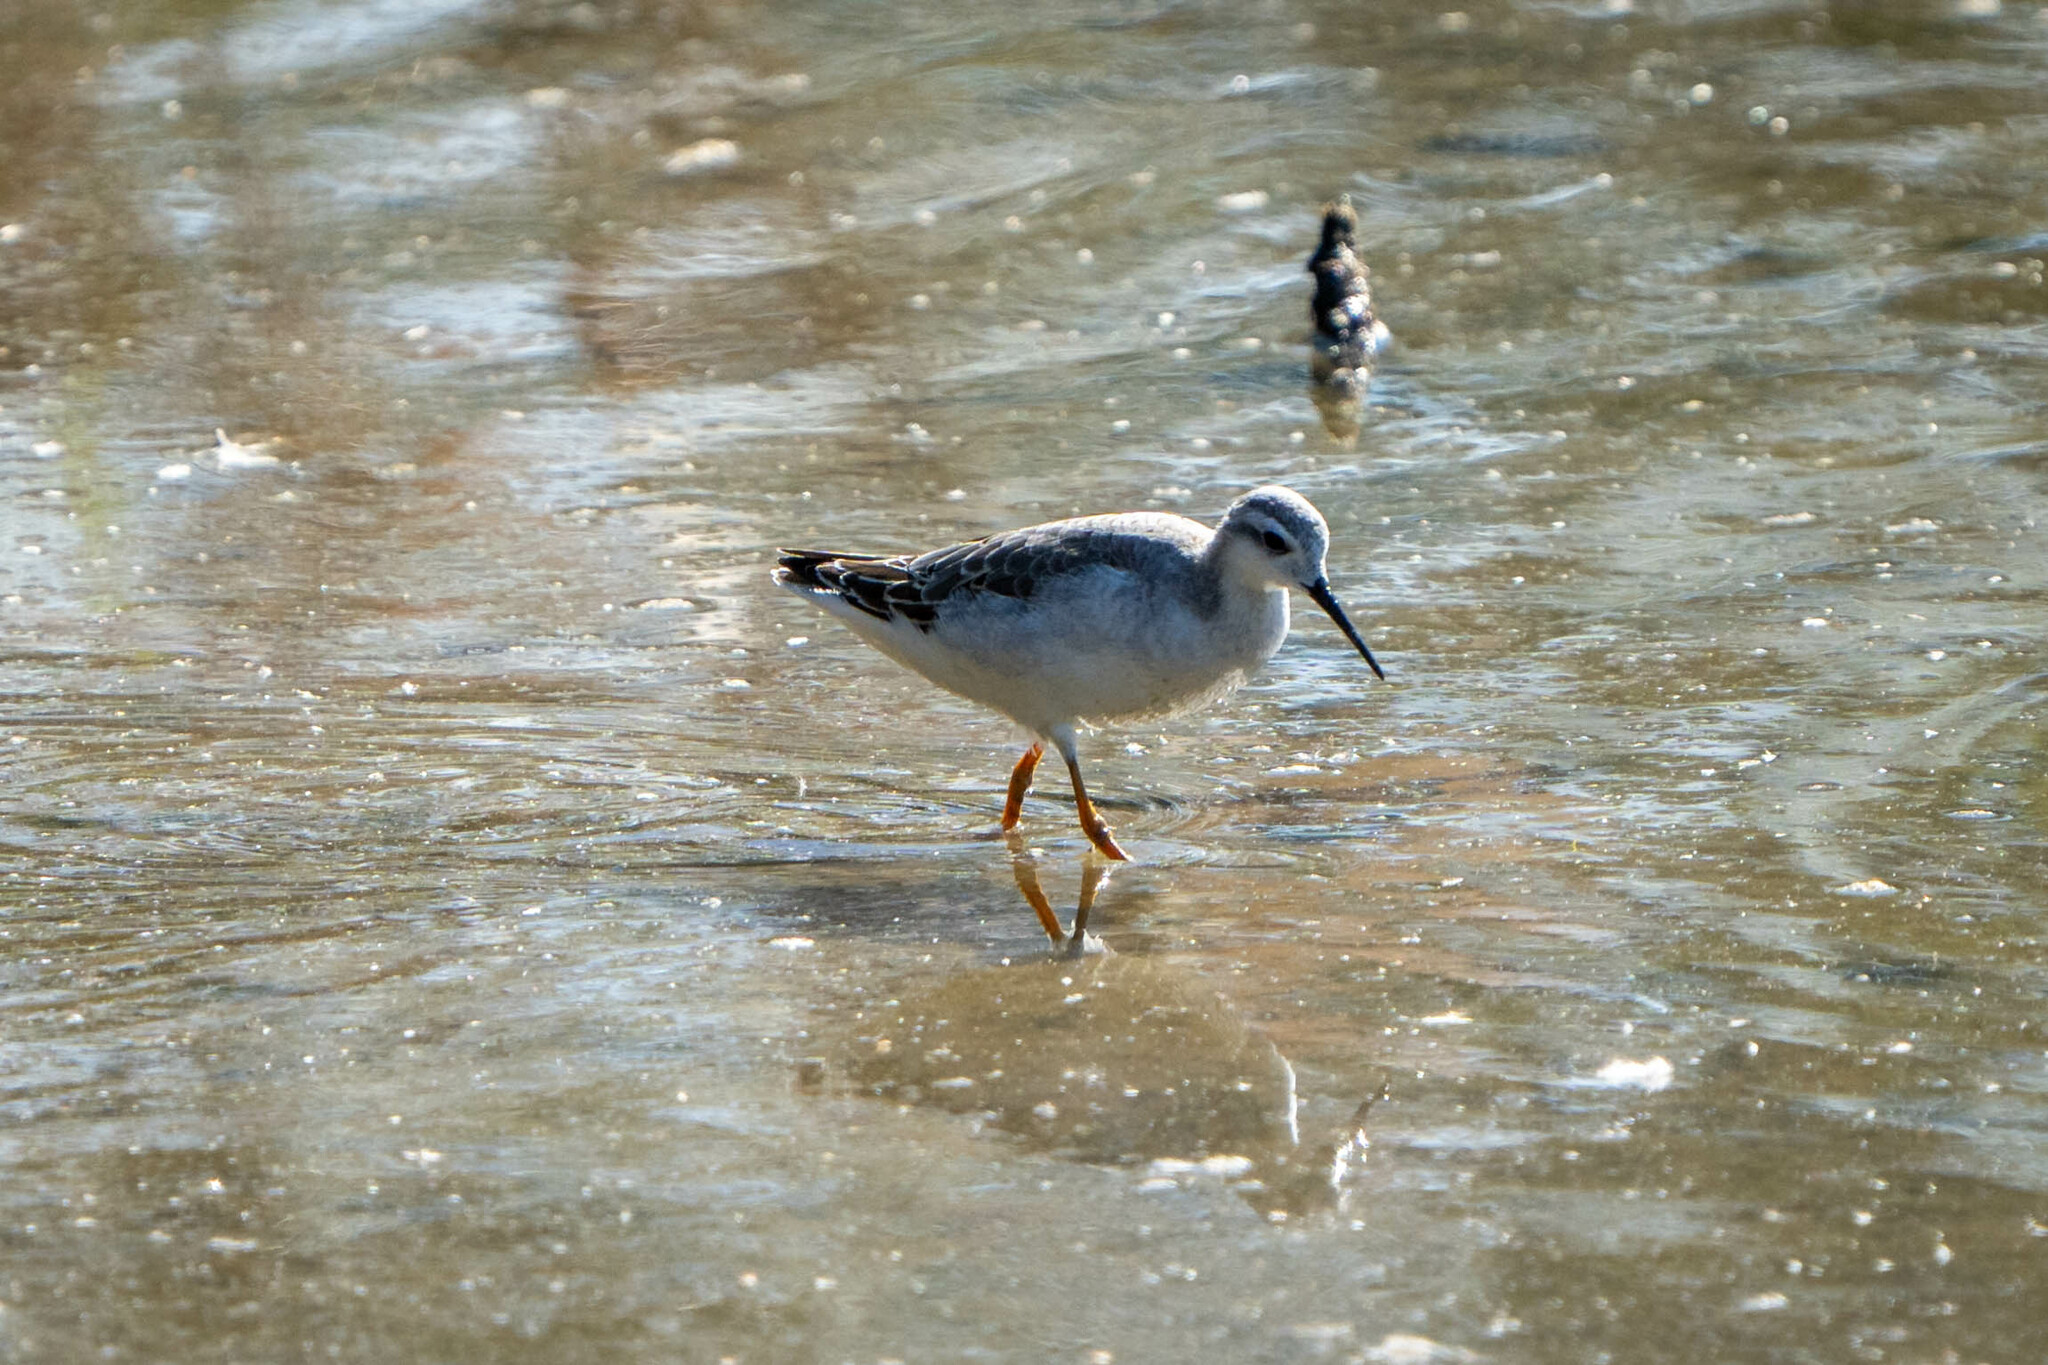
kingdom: Animalia
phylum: Chordata
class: Aves
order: Charadriiformes
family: Scolopacidae
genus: Phalaropus
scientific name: Phalaropus tricolor
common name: Wilson's phalarope
